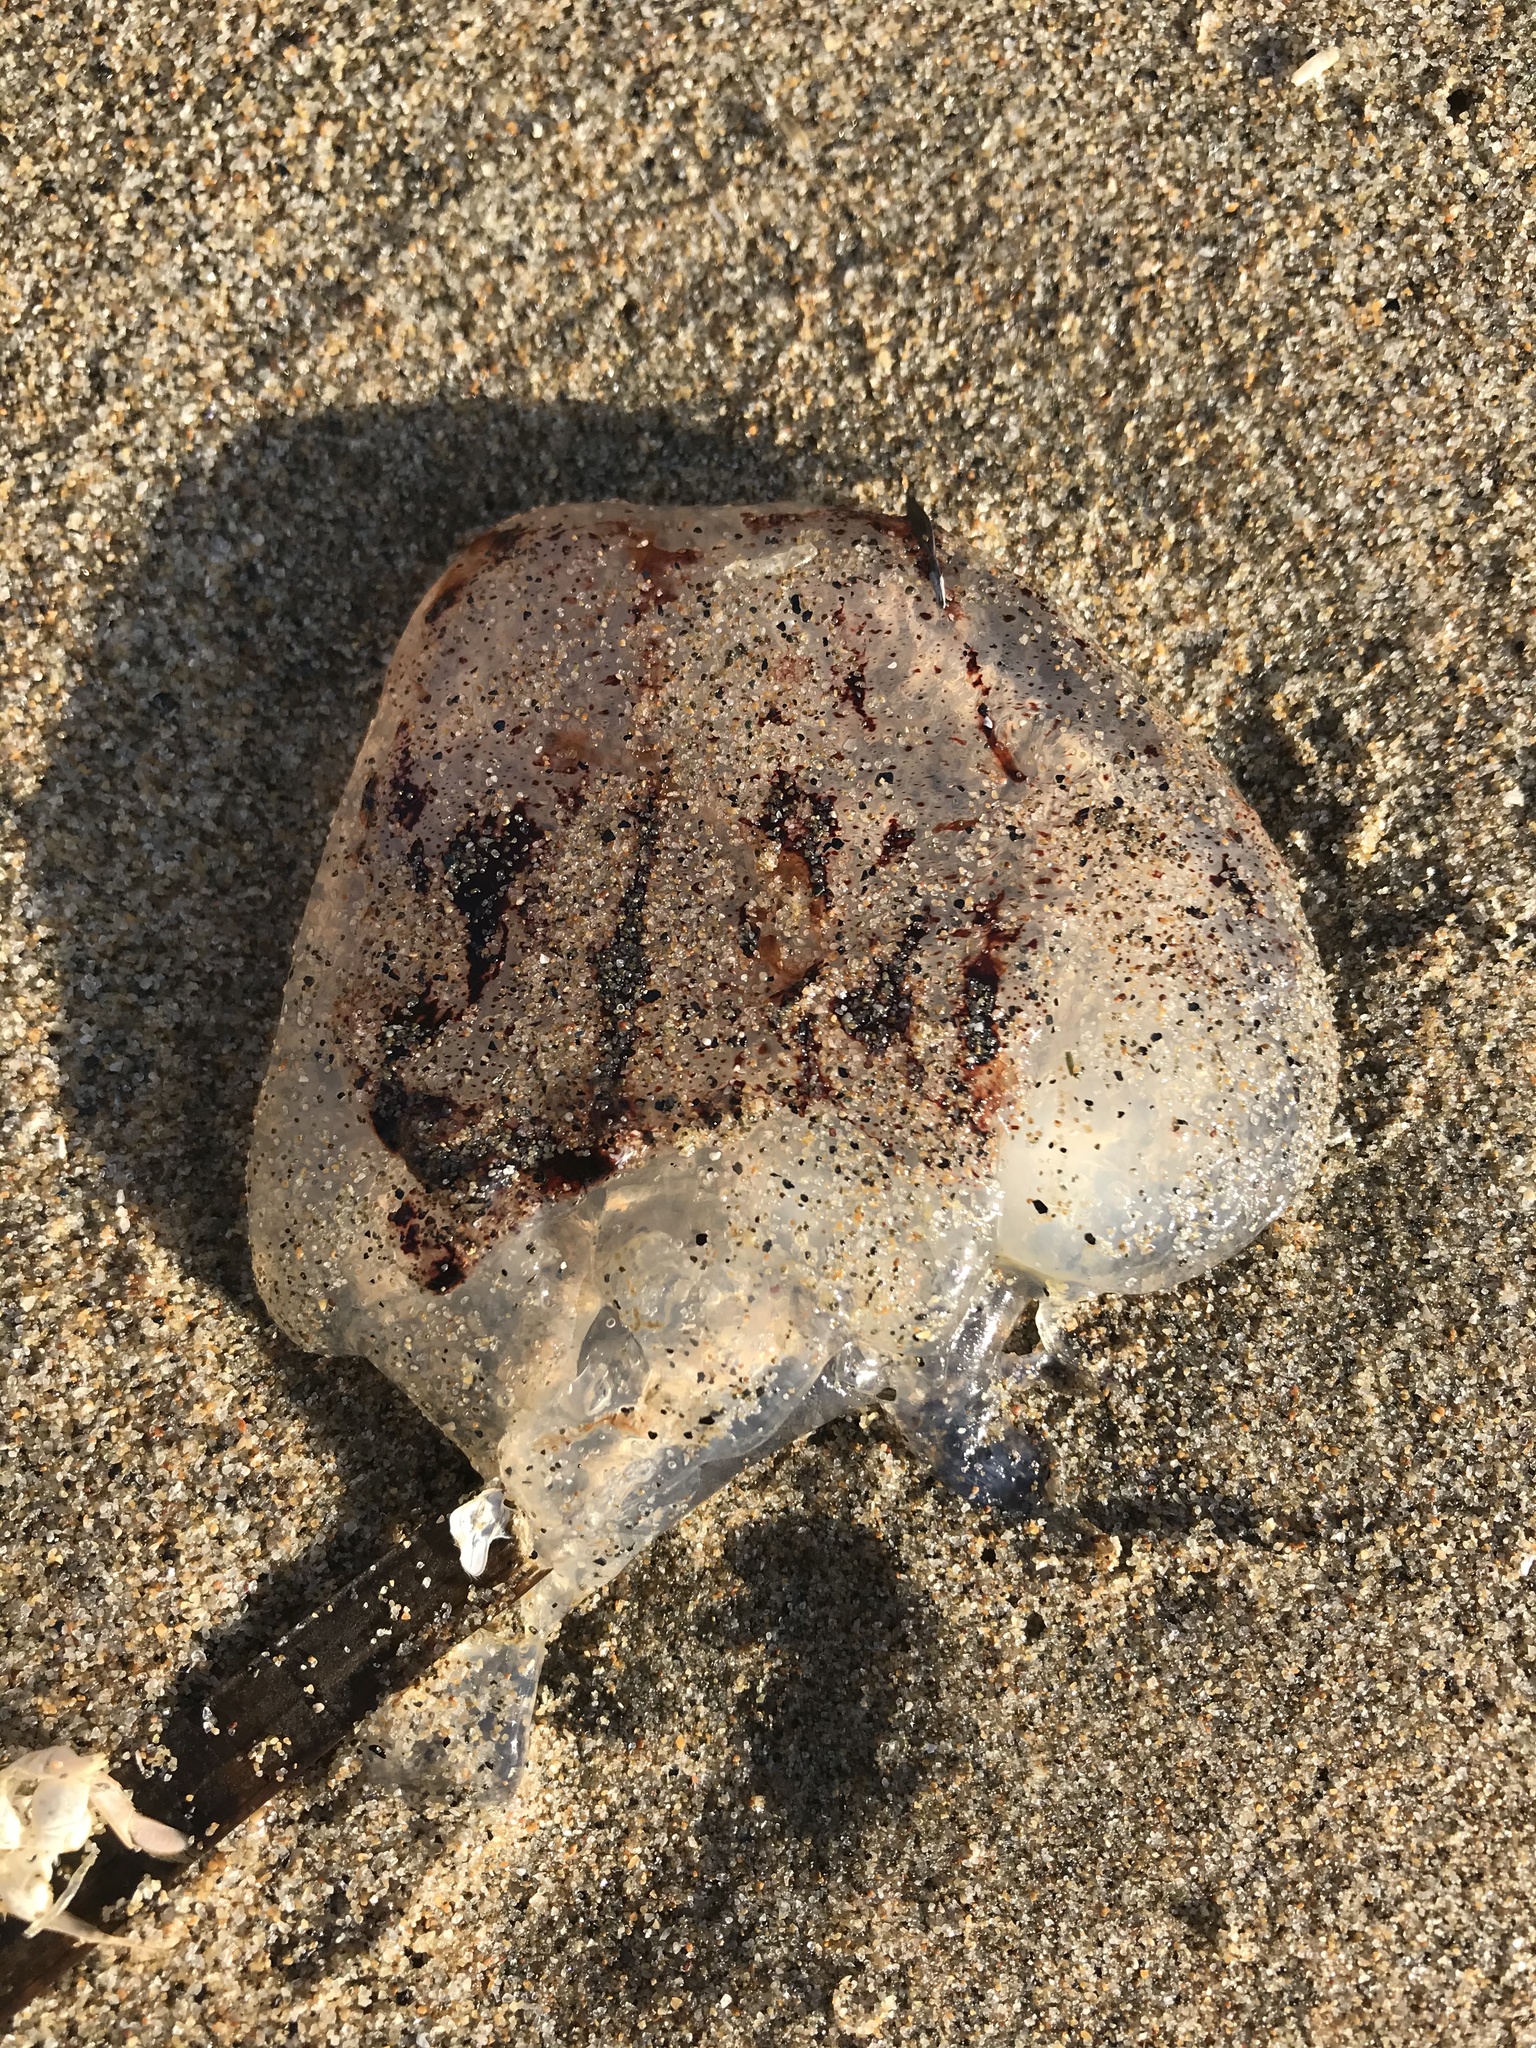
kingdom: Animalia
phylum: Cnidaria
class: Scyphozoa
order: Semaeostomeae
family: Pelagiidae
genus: Chrysaora
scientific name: Chrysaora colorata
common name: Purple-striped jellyfish
